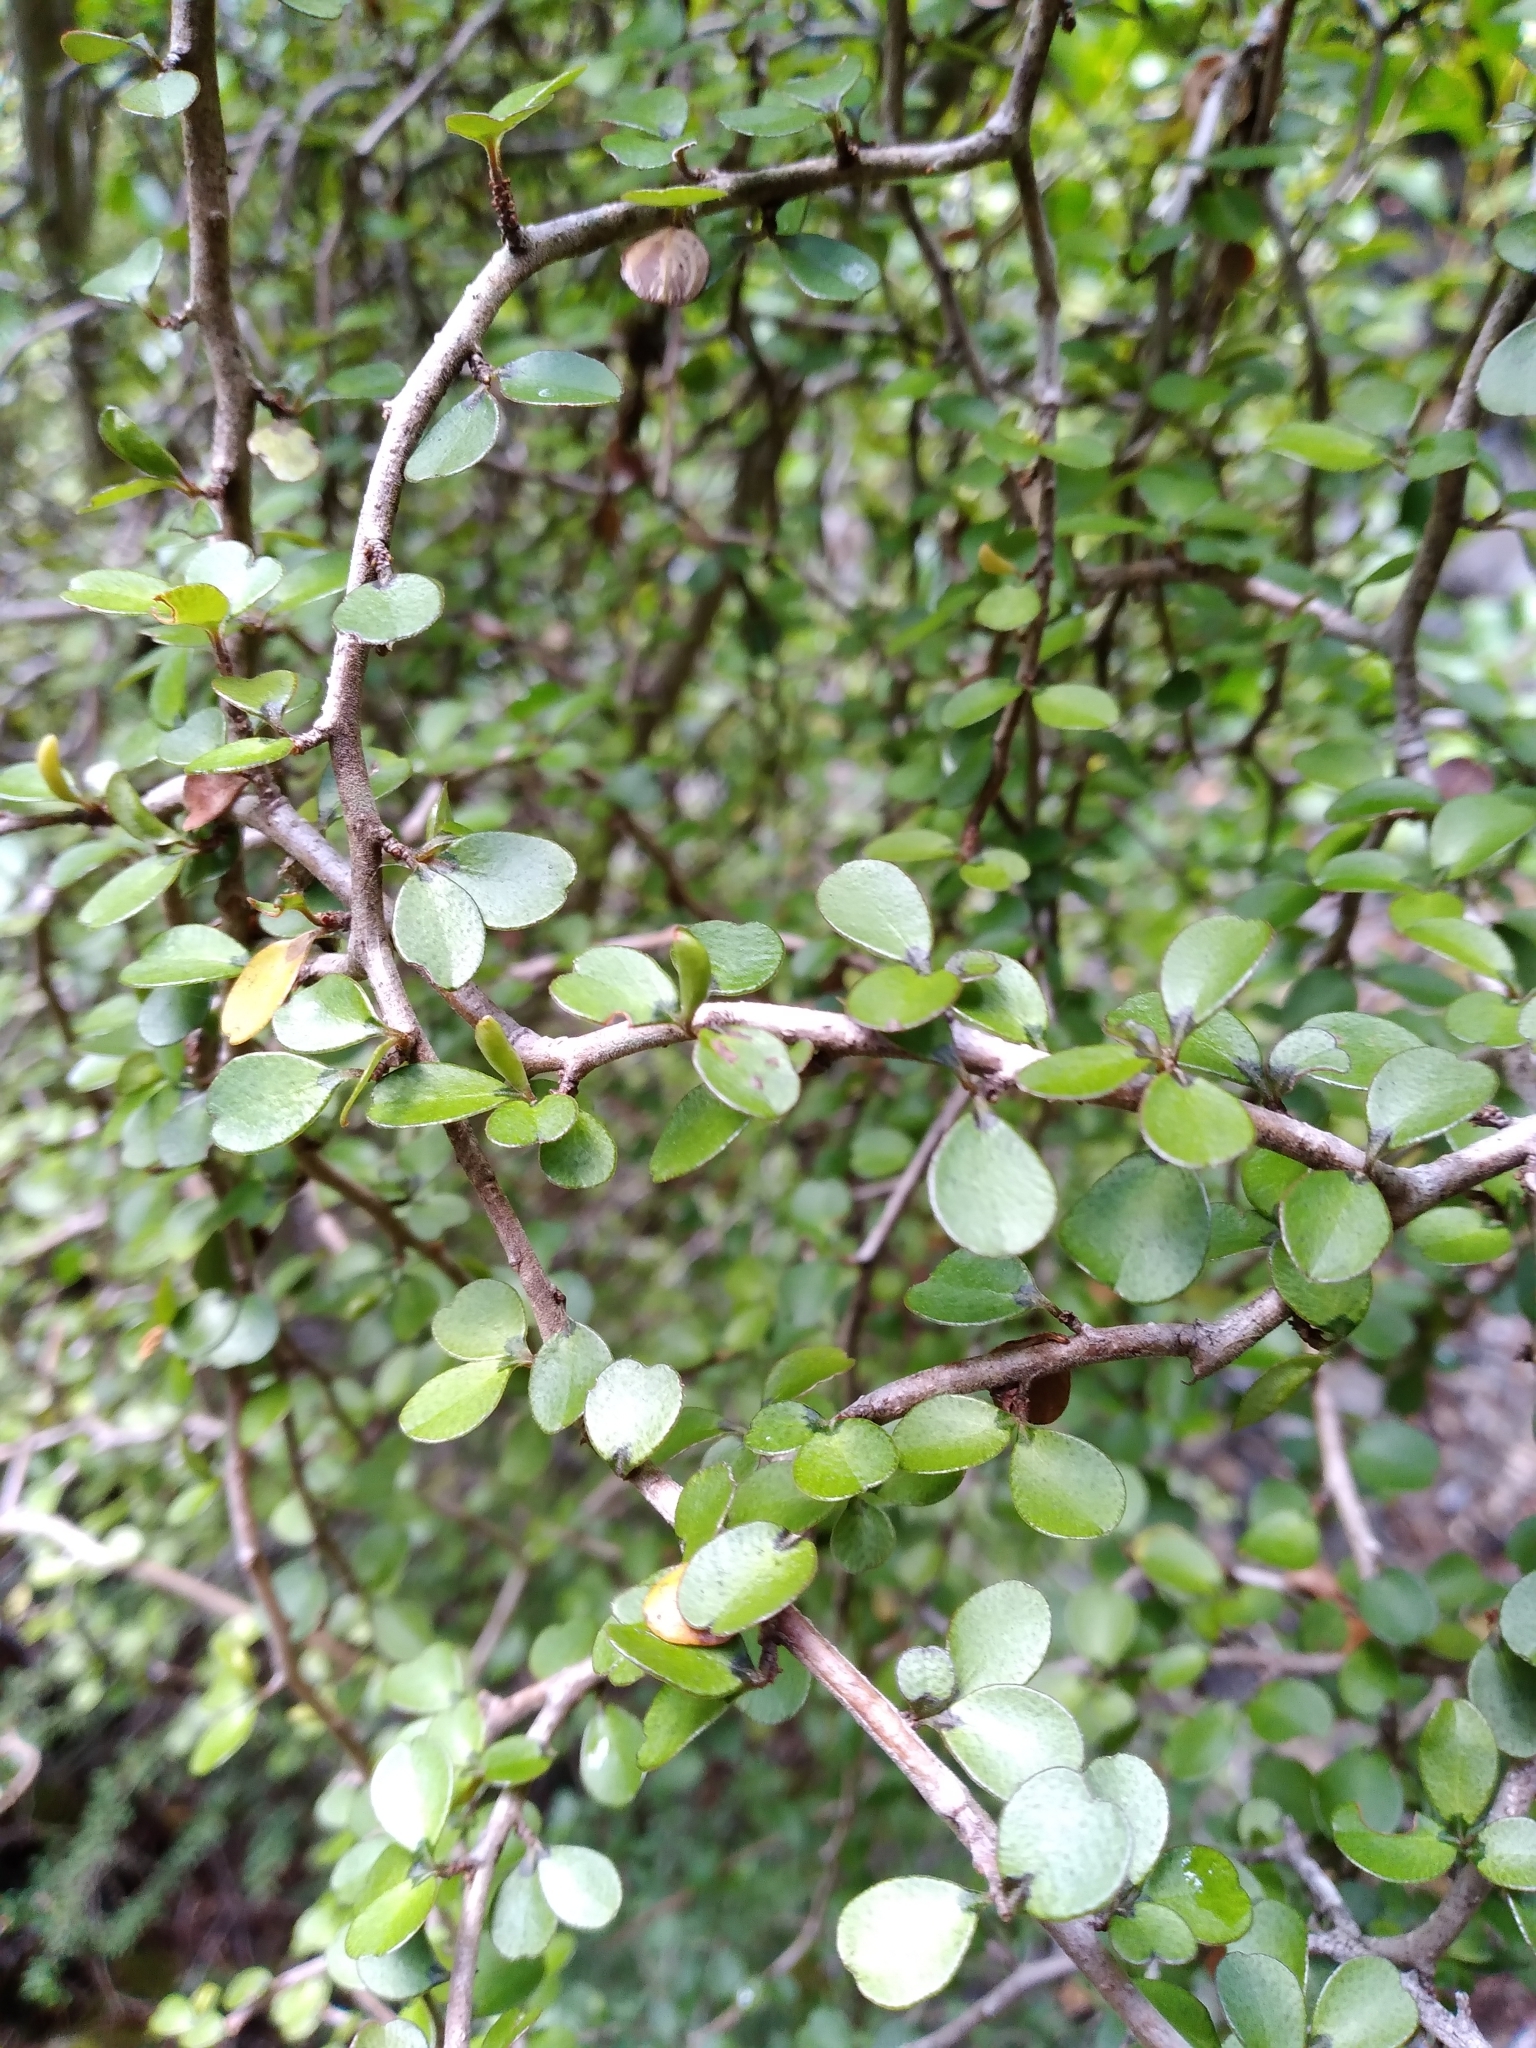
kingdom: Plantae
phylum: Tracheophyta
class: Magnoliopsida
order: Ericales
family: Primulaceae
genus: Myrsine
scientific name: Myrsine divaricata
